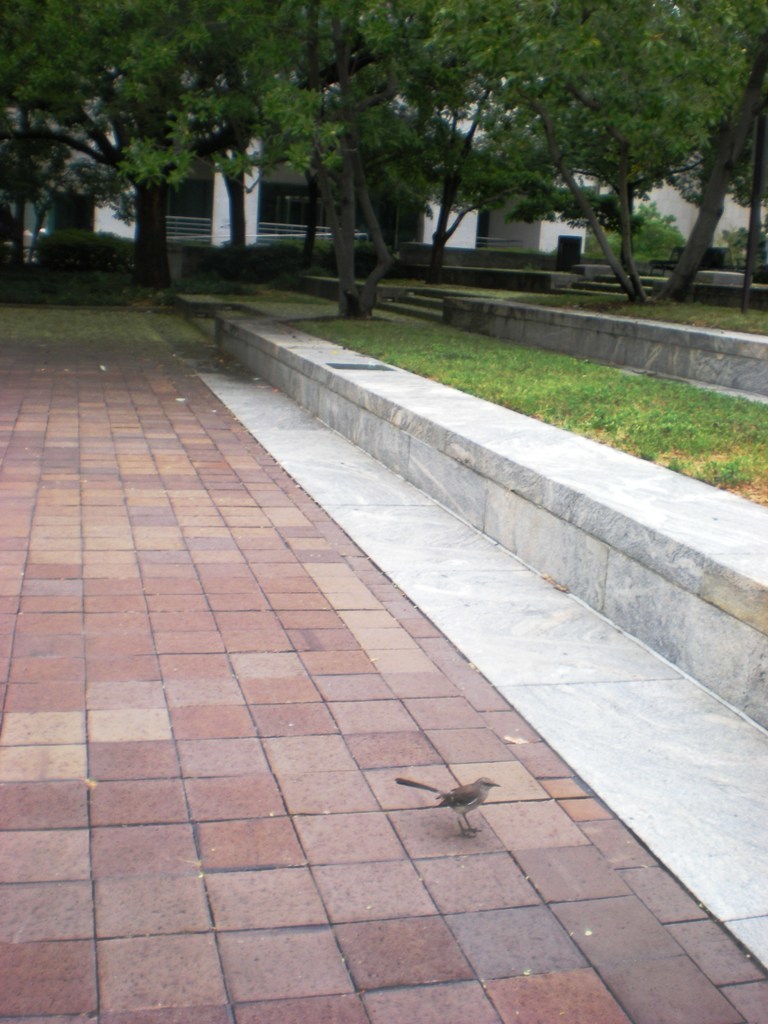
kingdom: Animalia
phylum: Chordata
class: Aves
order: Passeriformes
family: Mimidae
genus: Mimus
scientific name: Mimus polyglottos
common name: Northern mockingbird
